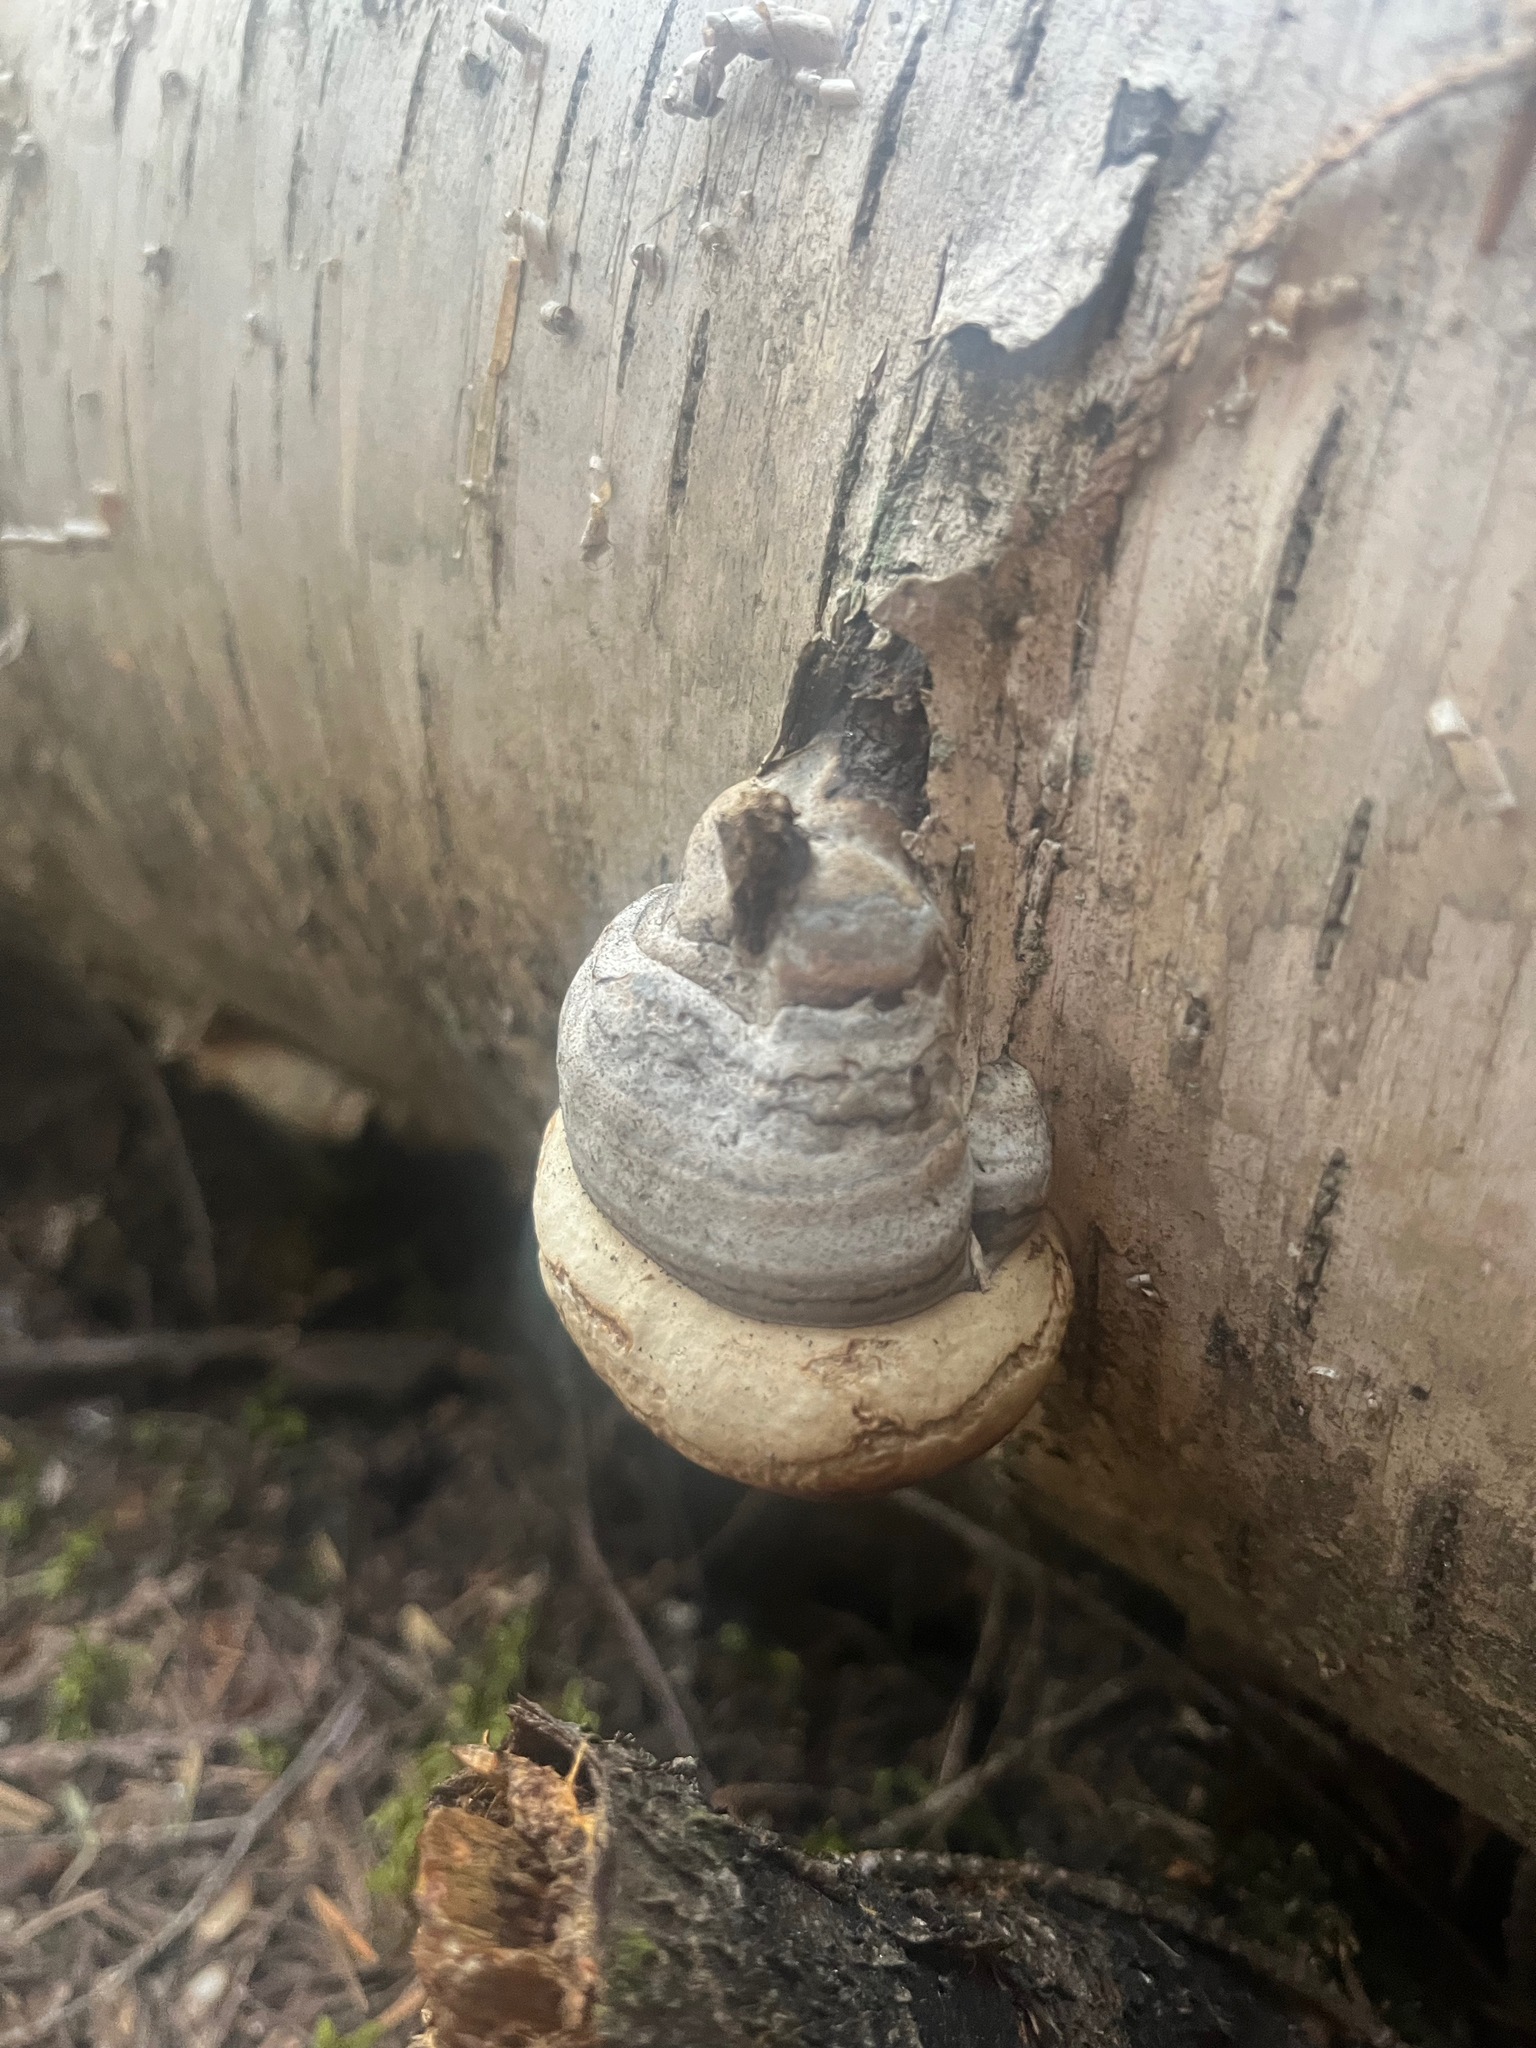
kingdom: Fungi
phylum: Basidiomycota
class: Agaricomycetes
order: Polyporales
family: Polyporaceae
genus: Fomes
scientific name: Fomes fomentarius
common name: Hoof fungus
